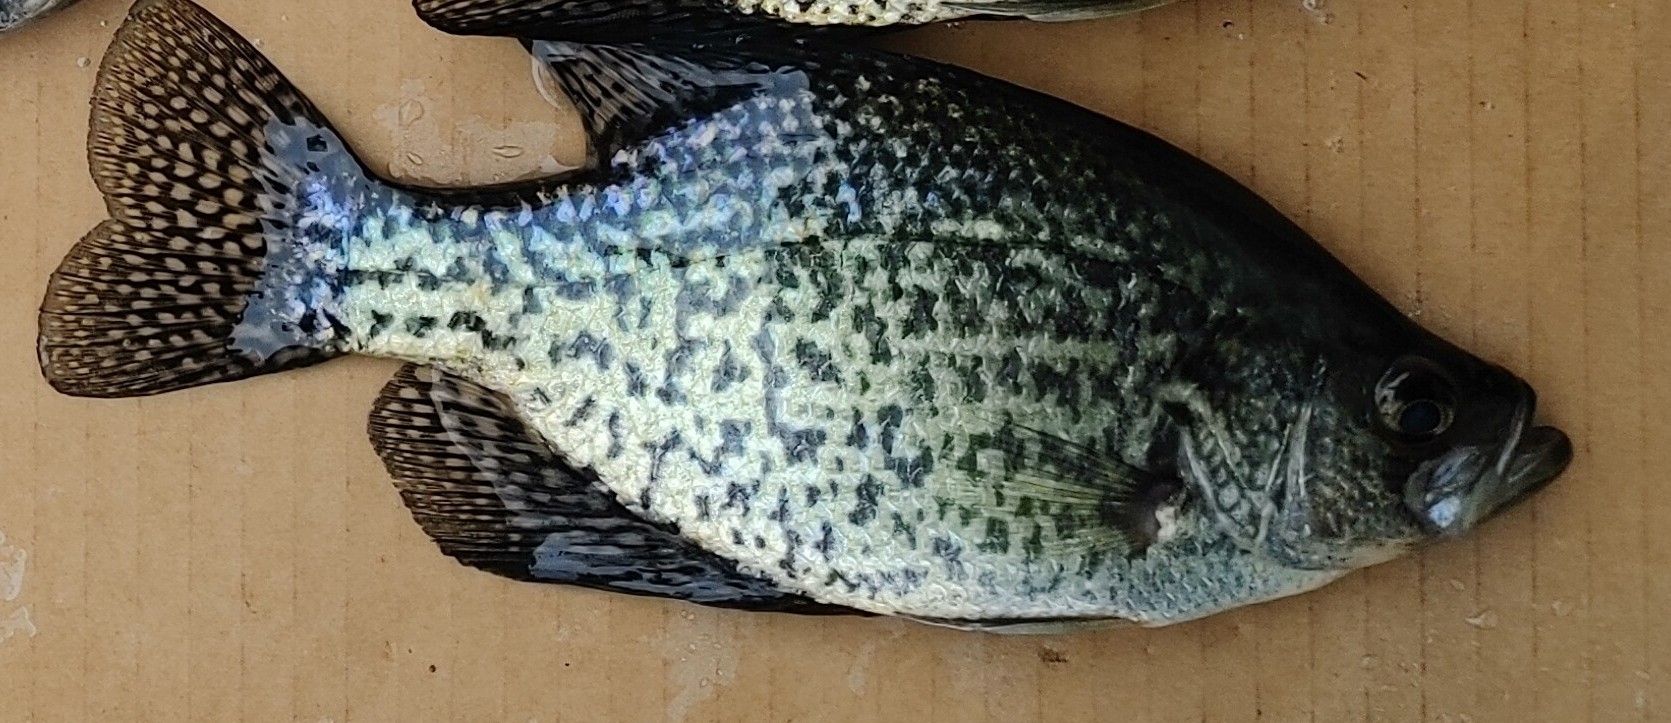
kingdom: Animalia
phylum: Chordata
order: Perciformes
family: Centrarchidae
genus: Pomoxis
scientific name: Pomoxis nigromaculatus
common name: Black crappie
